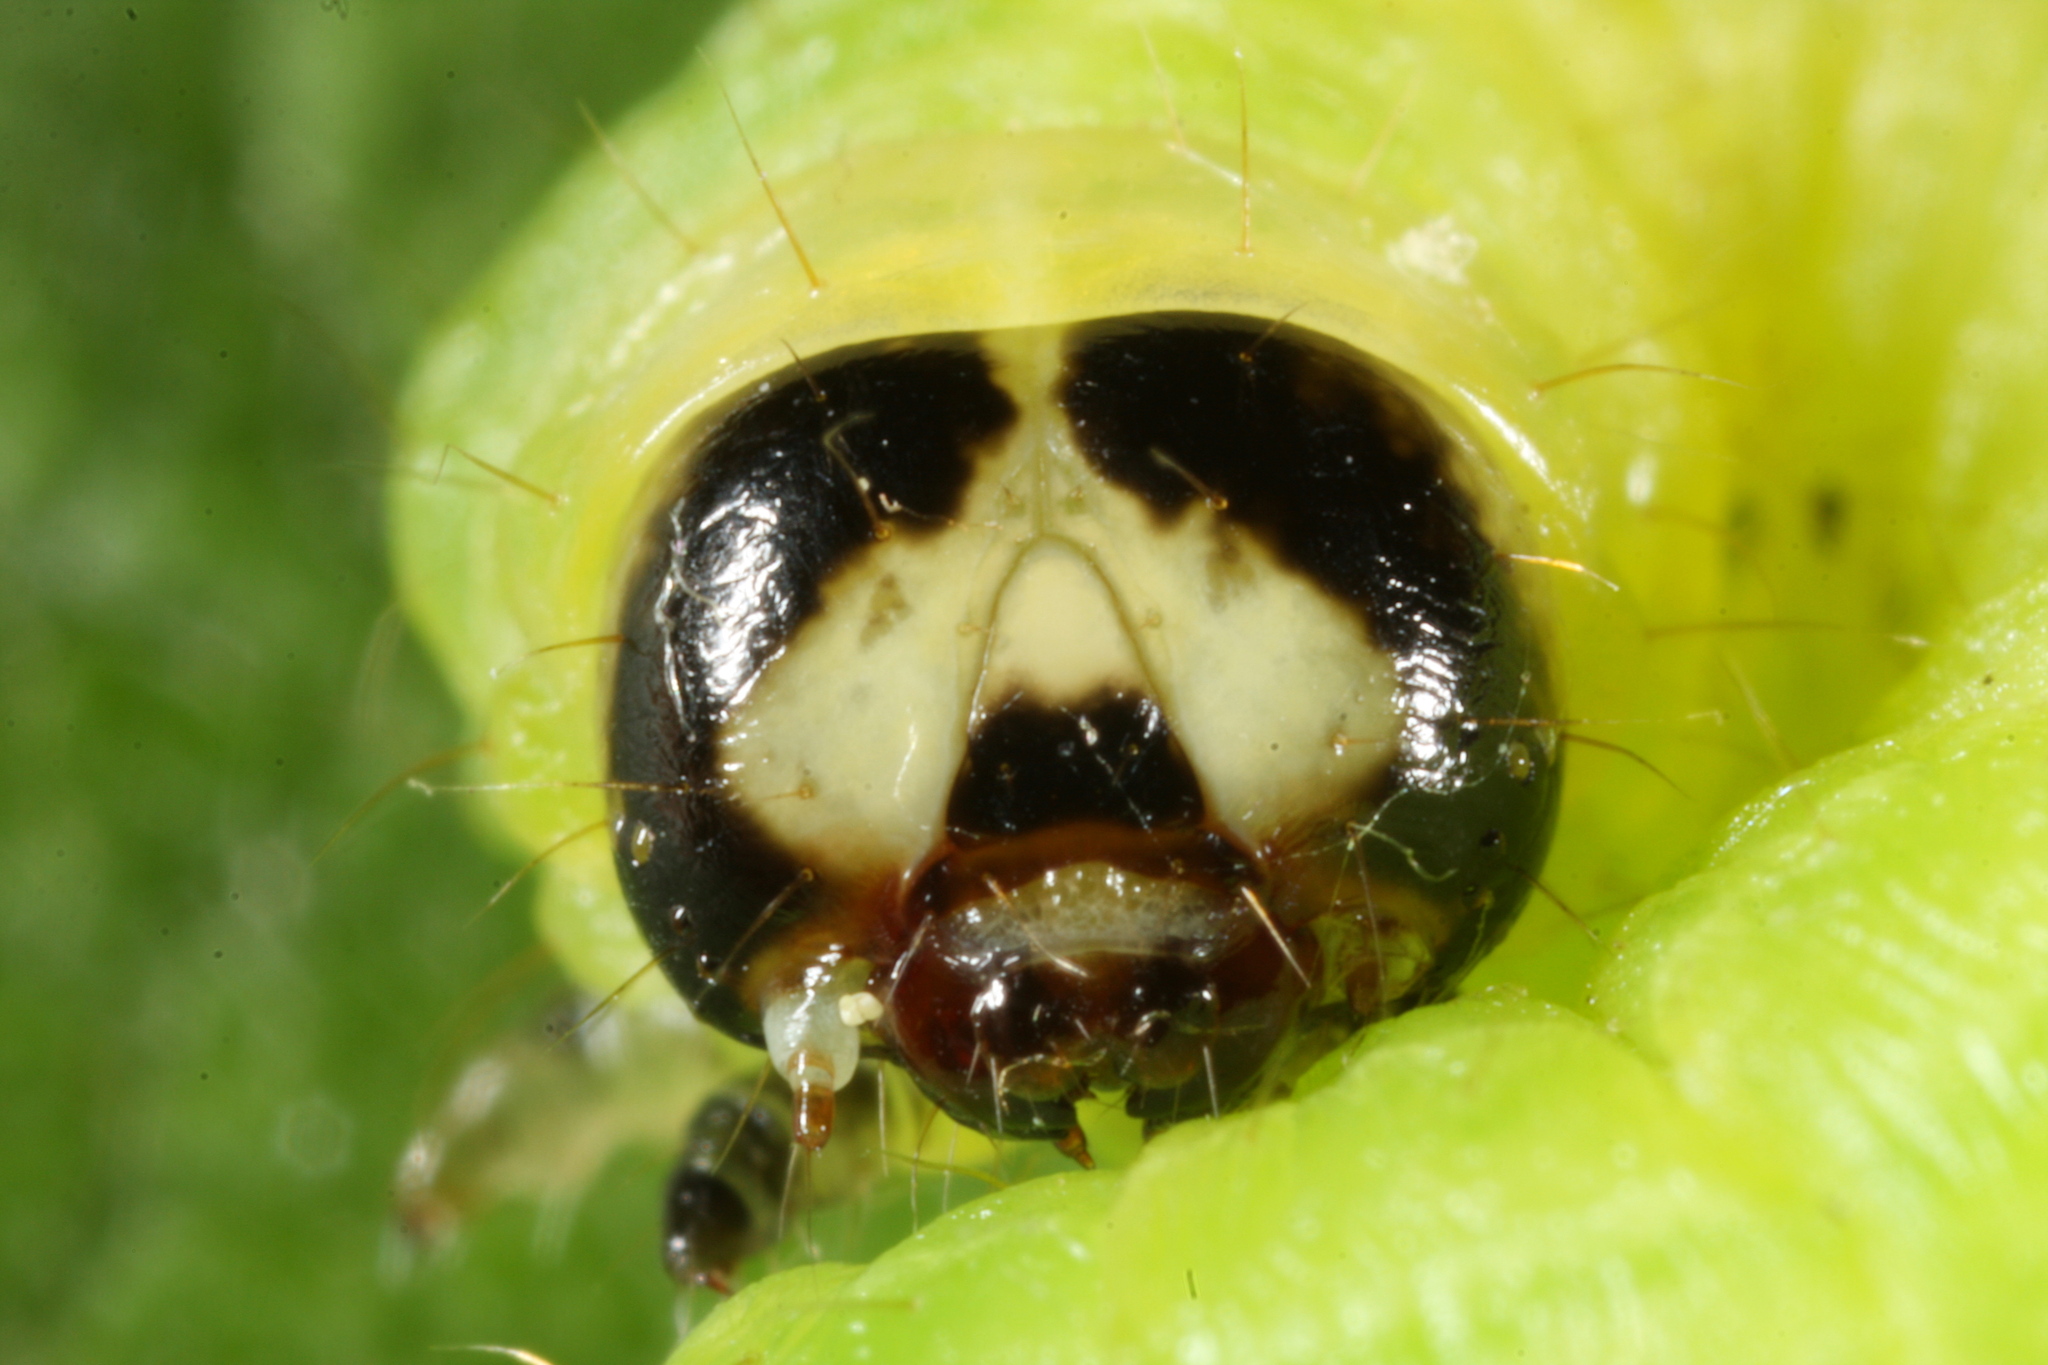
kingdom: Animalia
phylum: Arthropoda
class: Insecta
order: Lepidoptera
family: Noctuidae
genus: Ipimorpha
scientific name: Ipimorpha subtusa
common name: Olive
